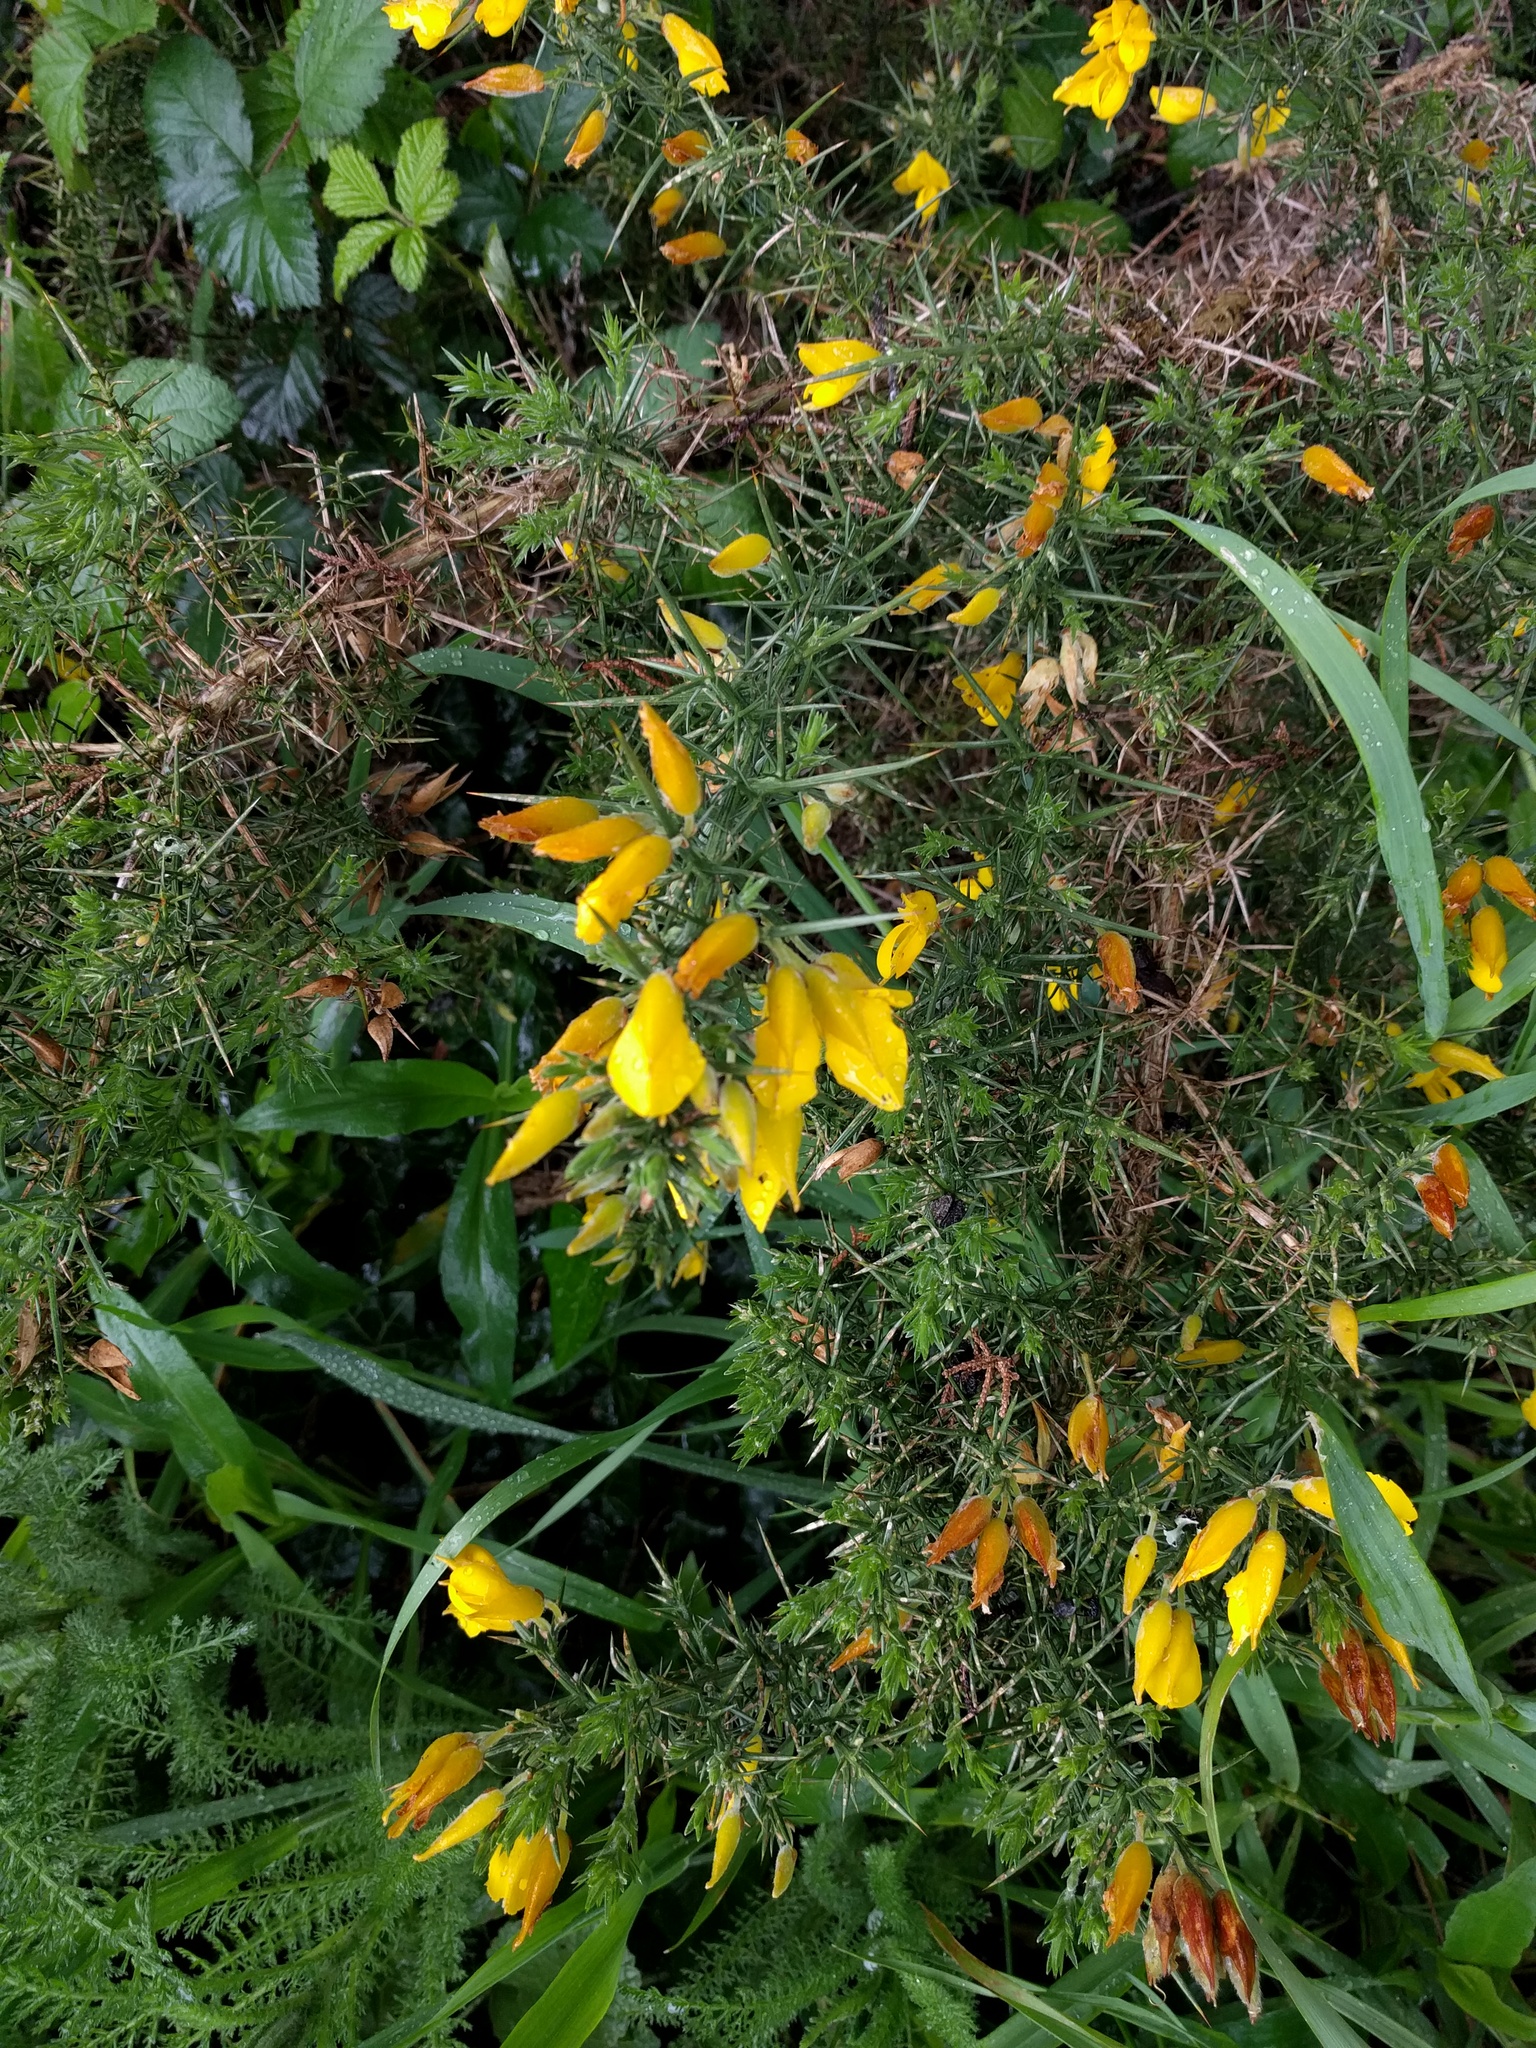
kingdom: Plantae
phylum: Tracheophyta
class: Magnoliopsida
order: Fabales
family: Fabaceae
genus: Ulex
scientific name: Ulex europaeus
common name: Common gorse
